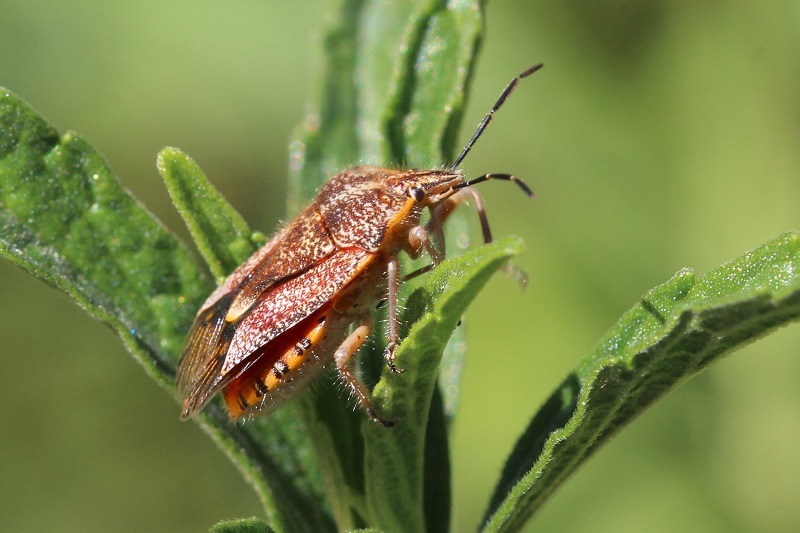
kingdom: Animalia
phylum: Arthropoda
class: Insecta
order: Hemiptera
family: Pentatomidae
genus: Agonoscelis
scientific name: Agonoscelis versicoloratus
